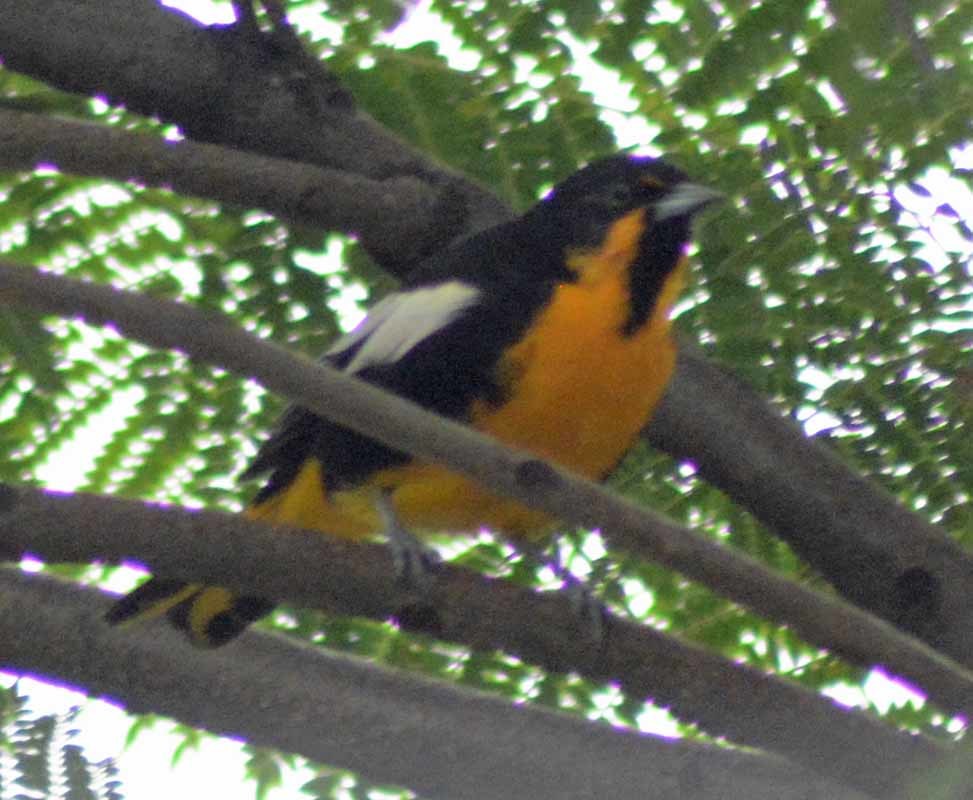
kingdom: Animalia
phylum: Chordata
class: Aves
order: Passeriformes
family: Icteridae
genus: Icterus
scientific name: Icterus abeillei
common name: Black-backed oriole
